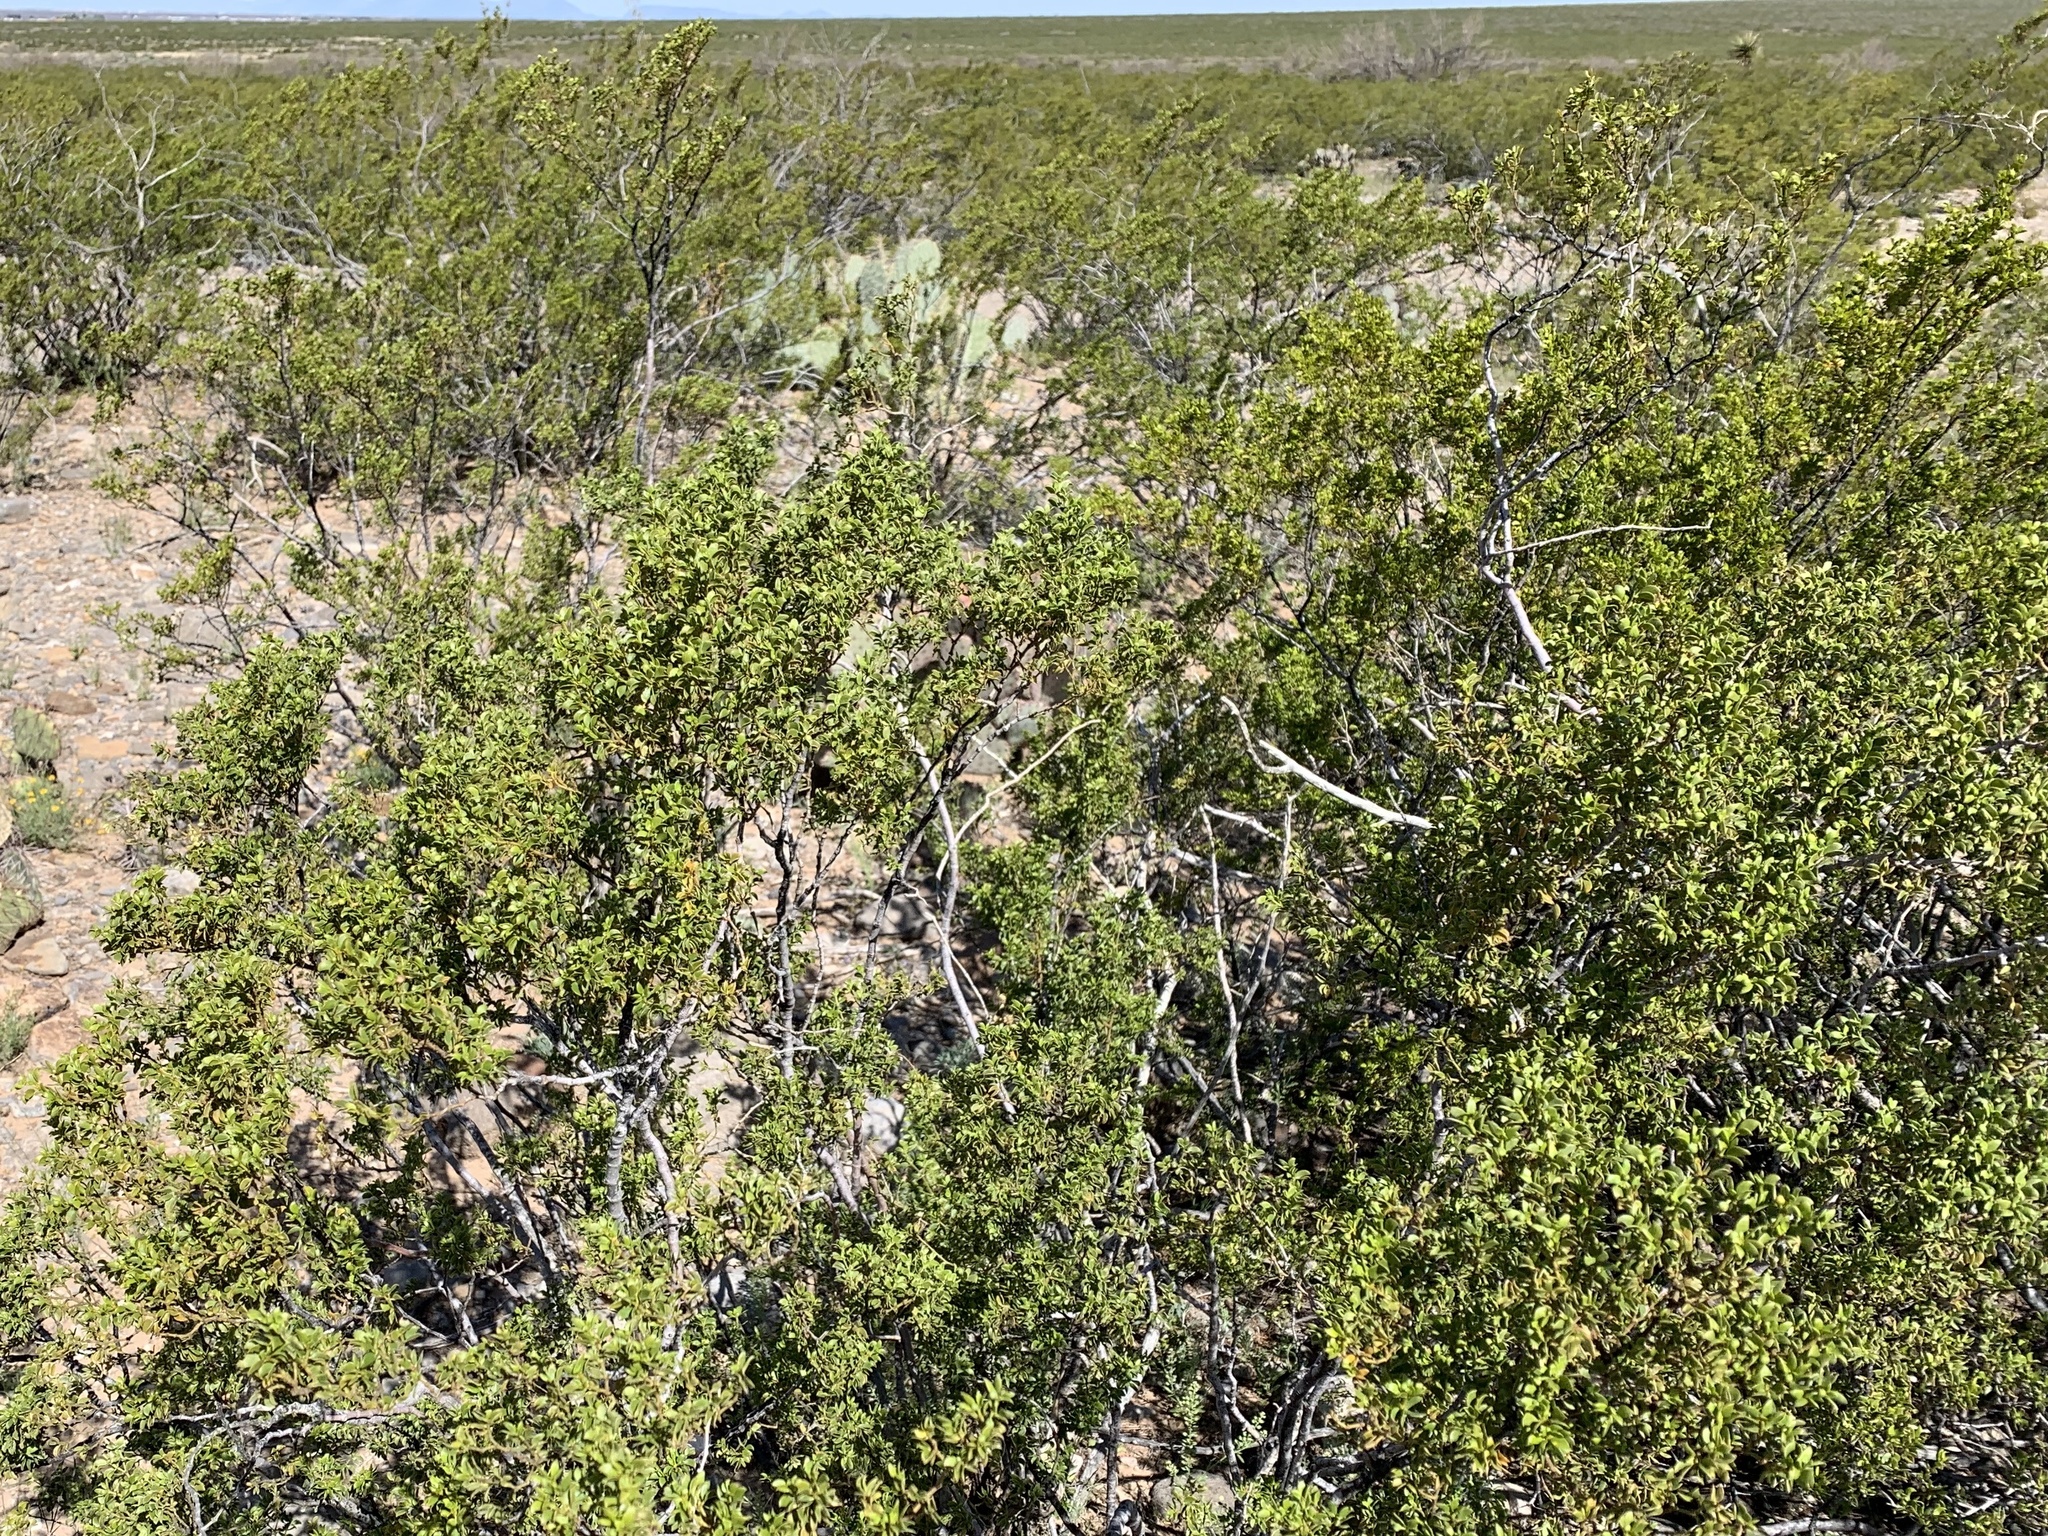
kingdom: Plantae
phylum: Tracheophyta
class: Magnoliopsida
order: Zygophyllales
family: Zygophyllaceae
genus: Larrea
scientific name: Larrea tridentata
